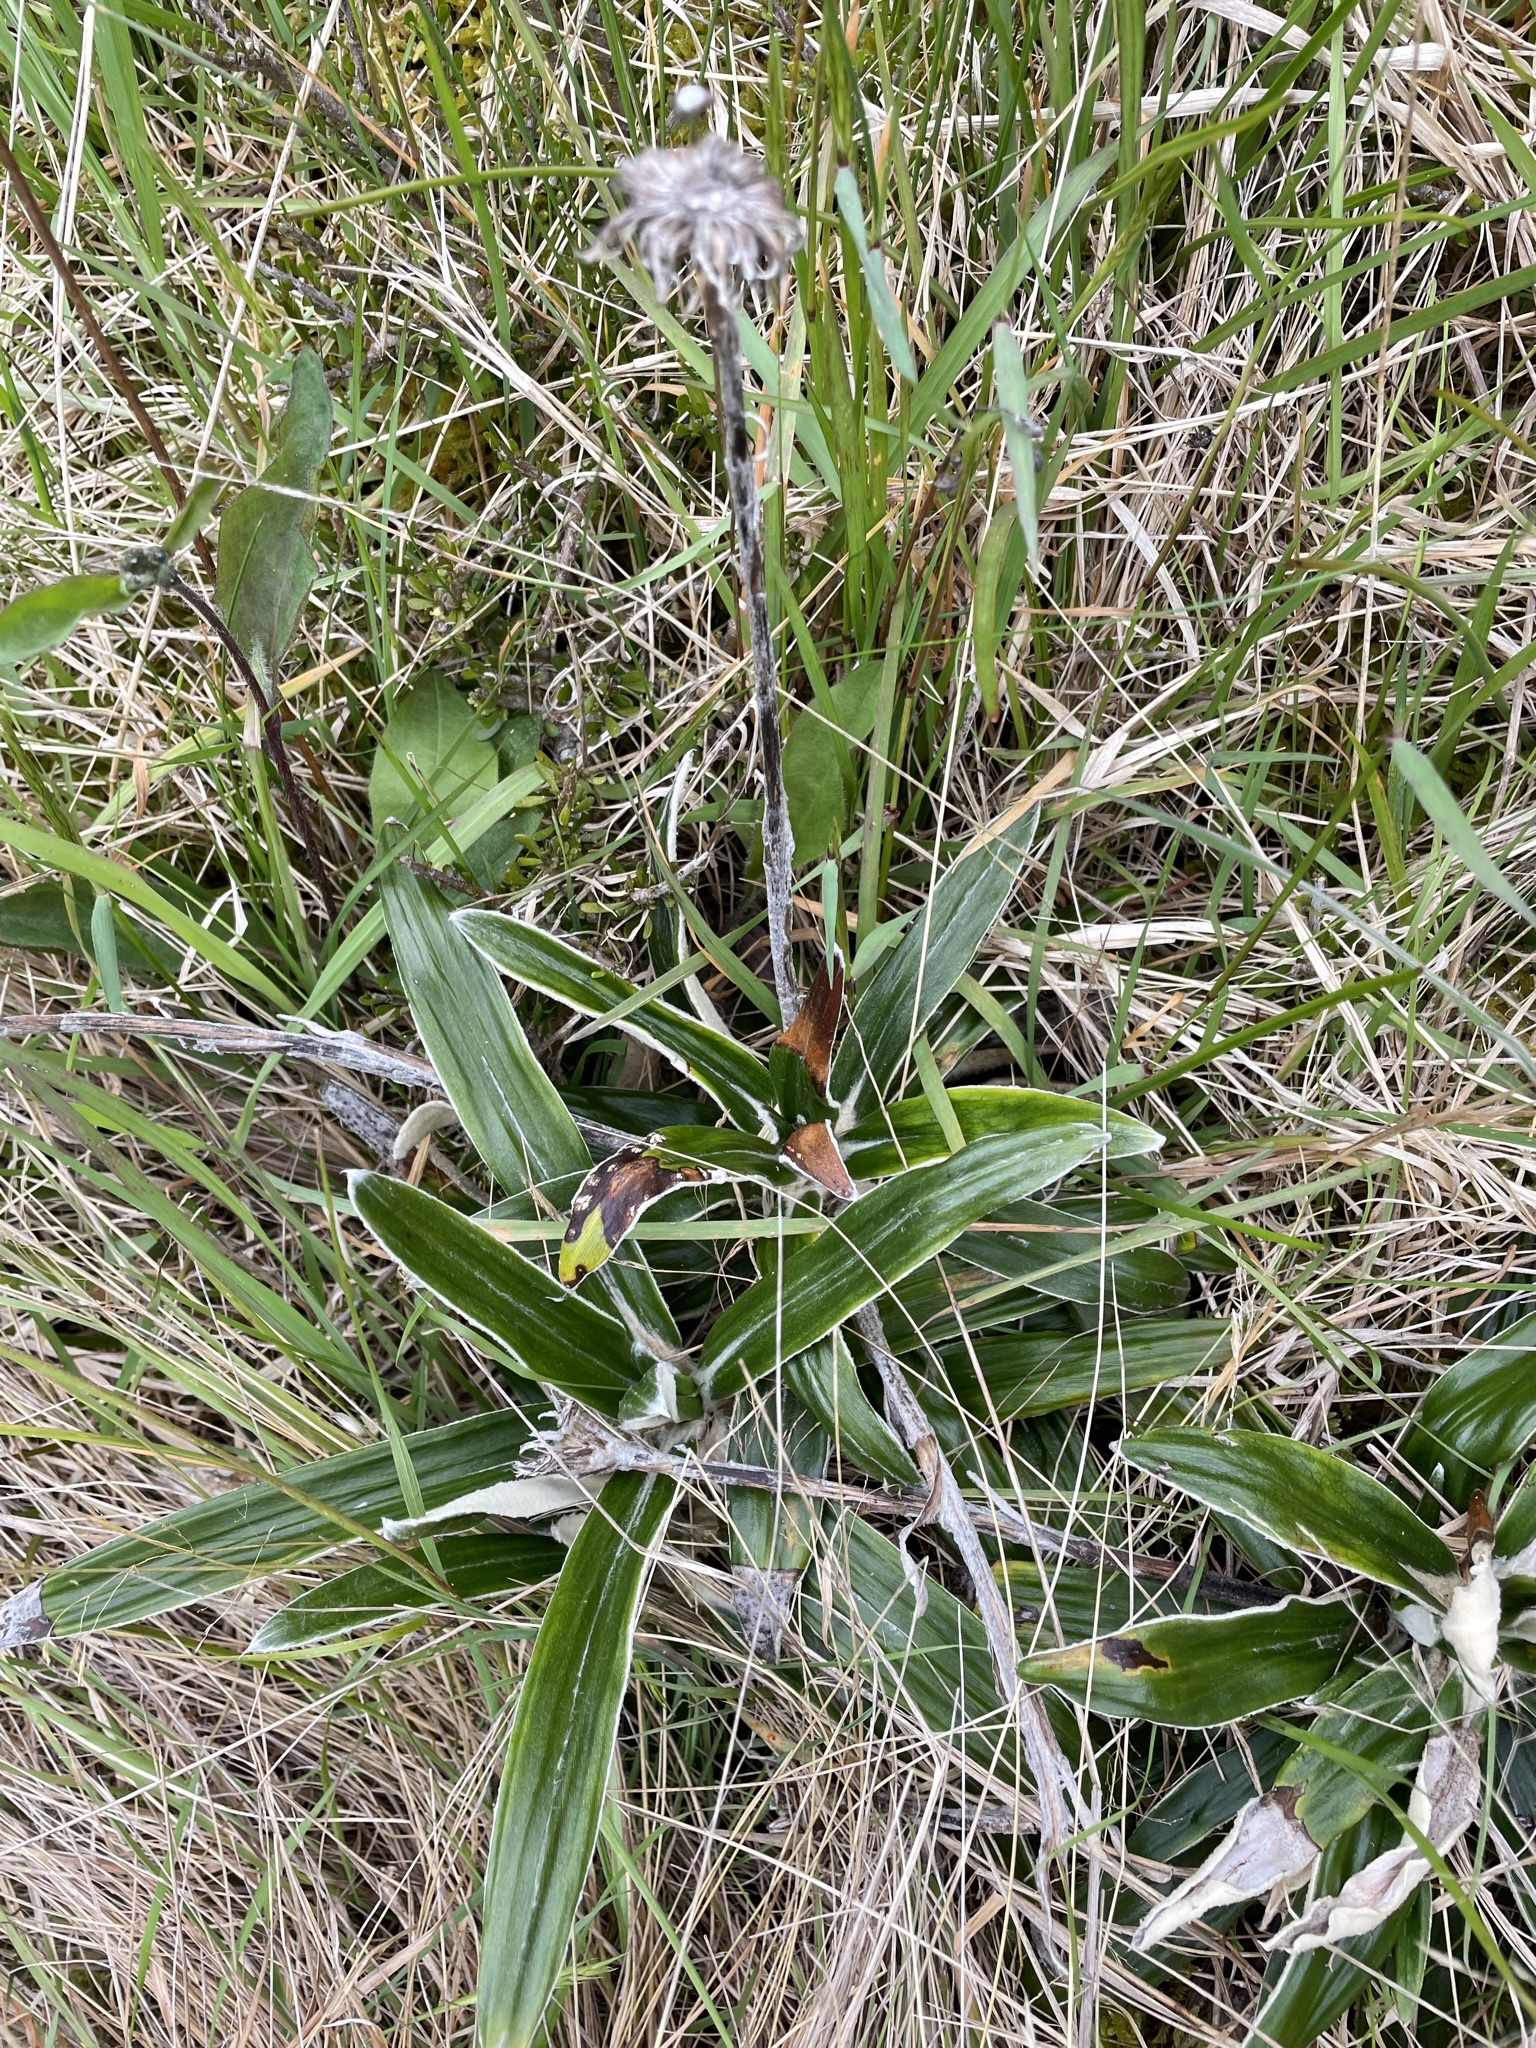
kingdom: Plantae
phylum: Tracheophyta
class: Magnoliopsida
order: Asterales
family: Asteraceae
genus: Celmisia
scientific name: Celmisia spectabilis
